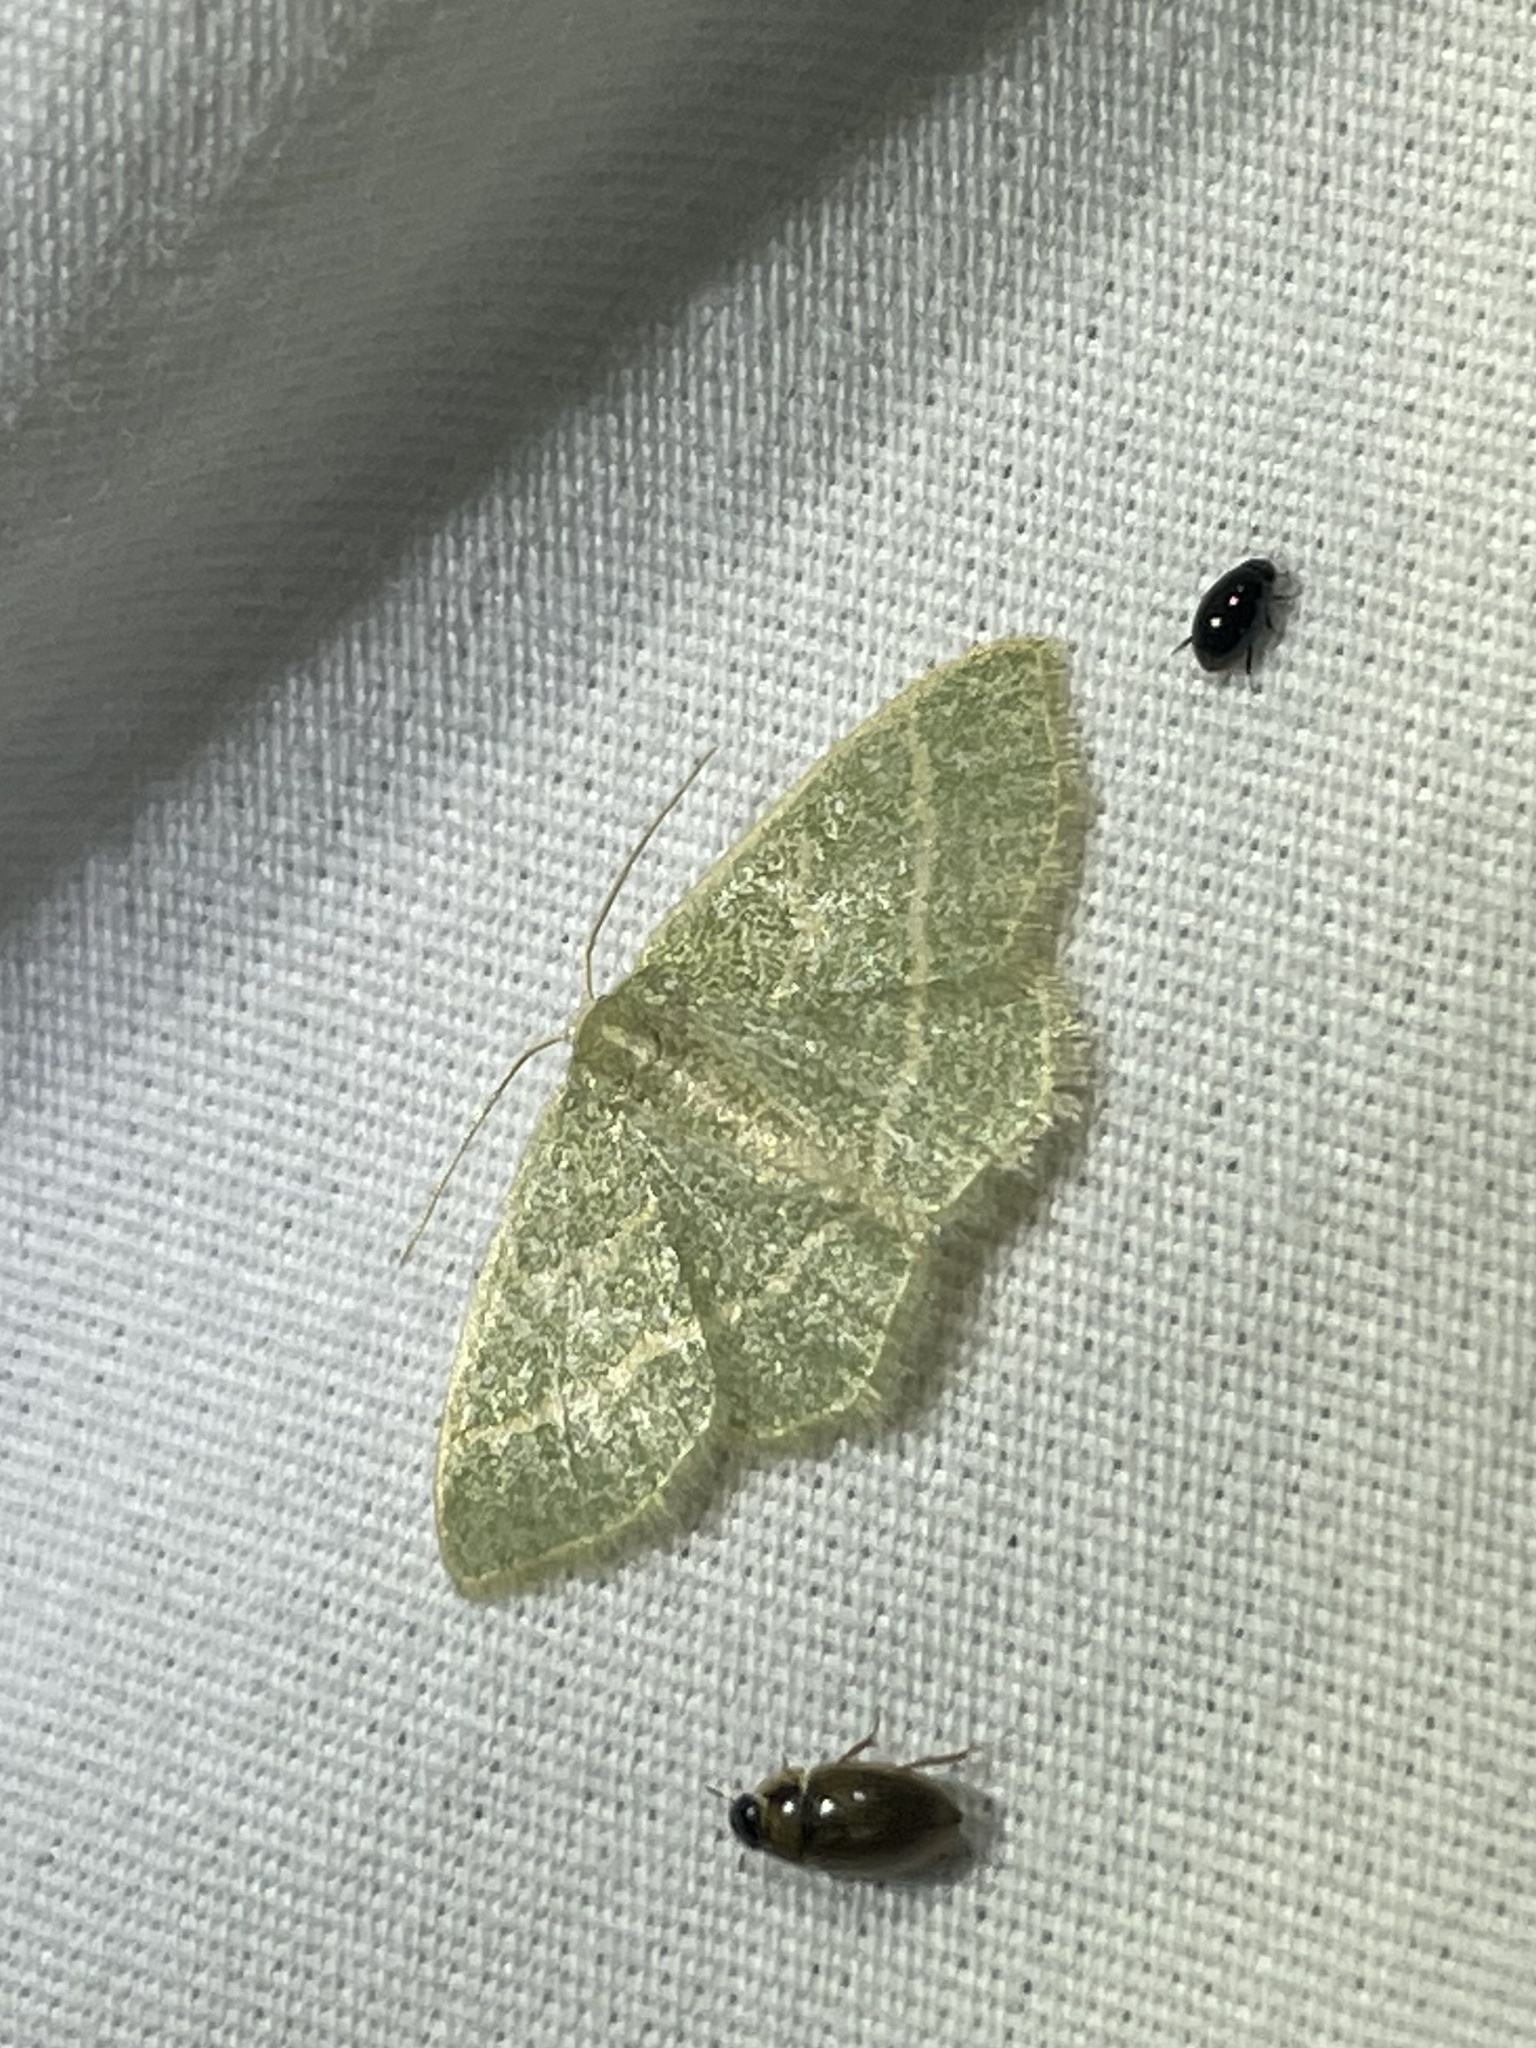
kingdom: Animalia
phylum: Arthropoda
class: Insecta
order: Lepidoptera
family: Geometridae
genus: Chlorochlamys
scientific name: Chlorochlamys chloroleucaria
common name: Blackberry looper
